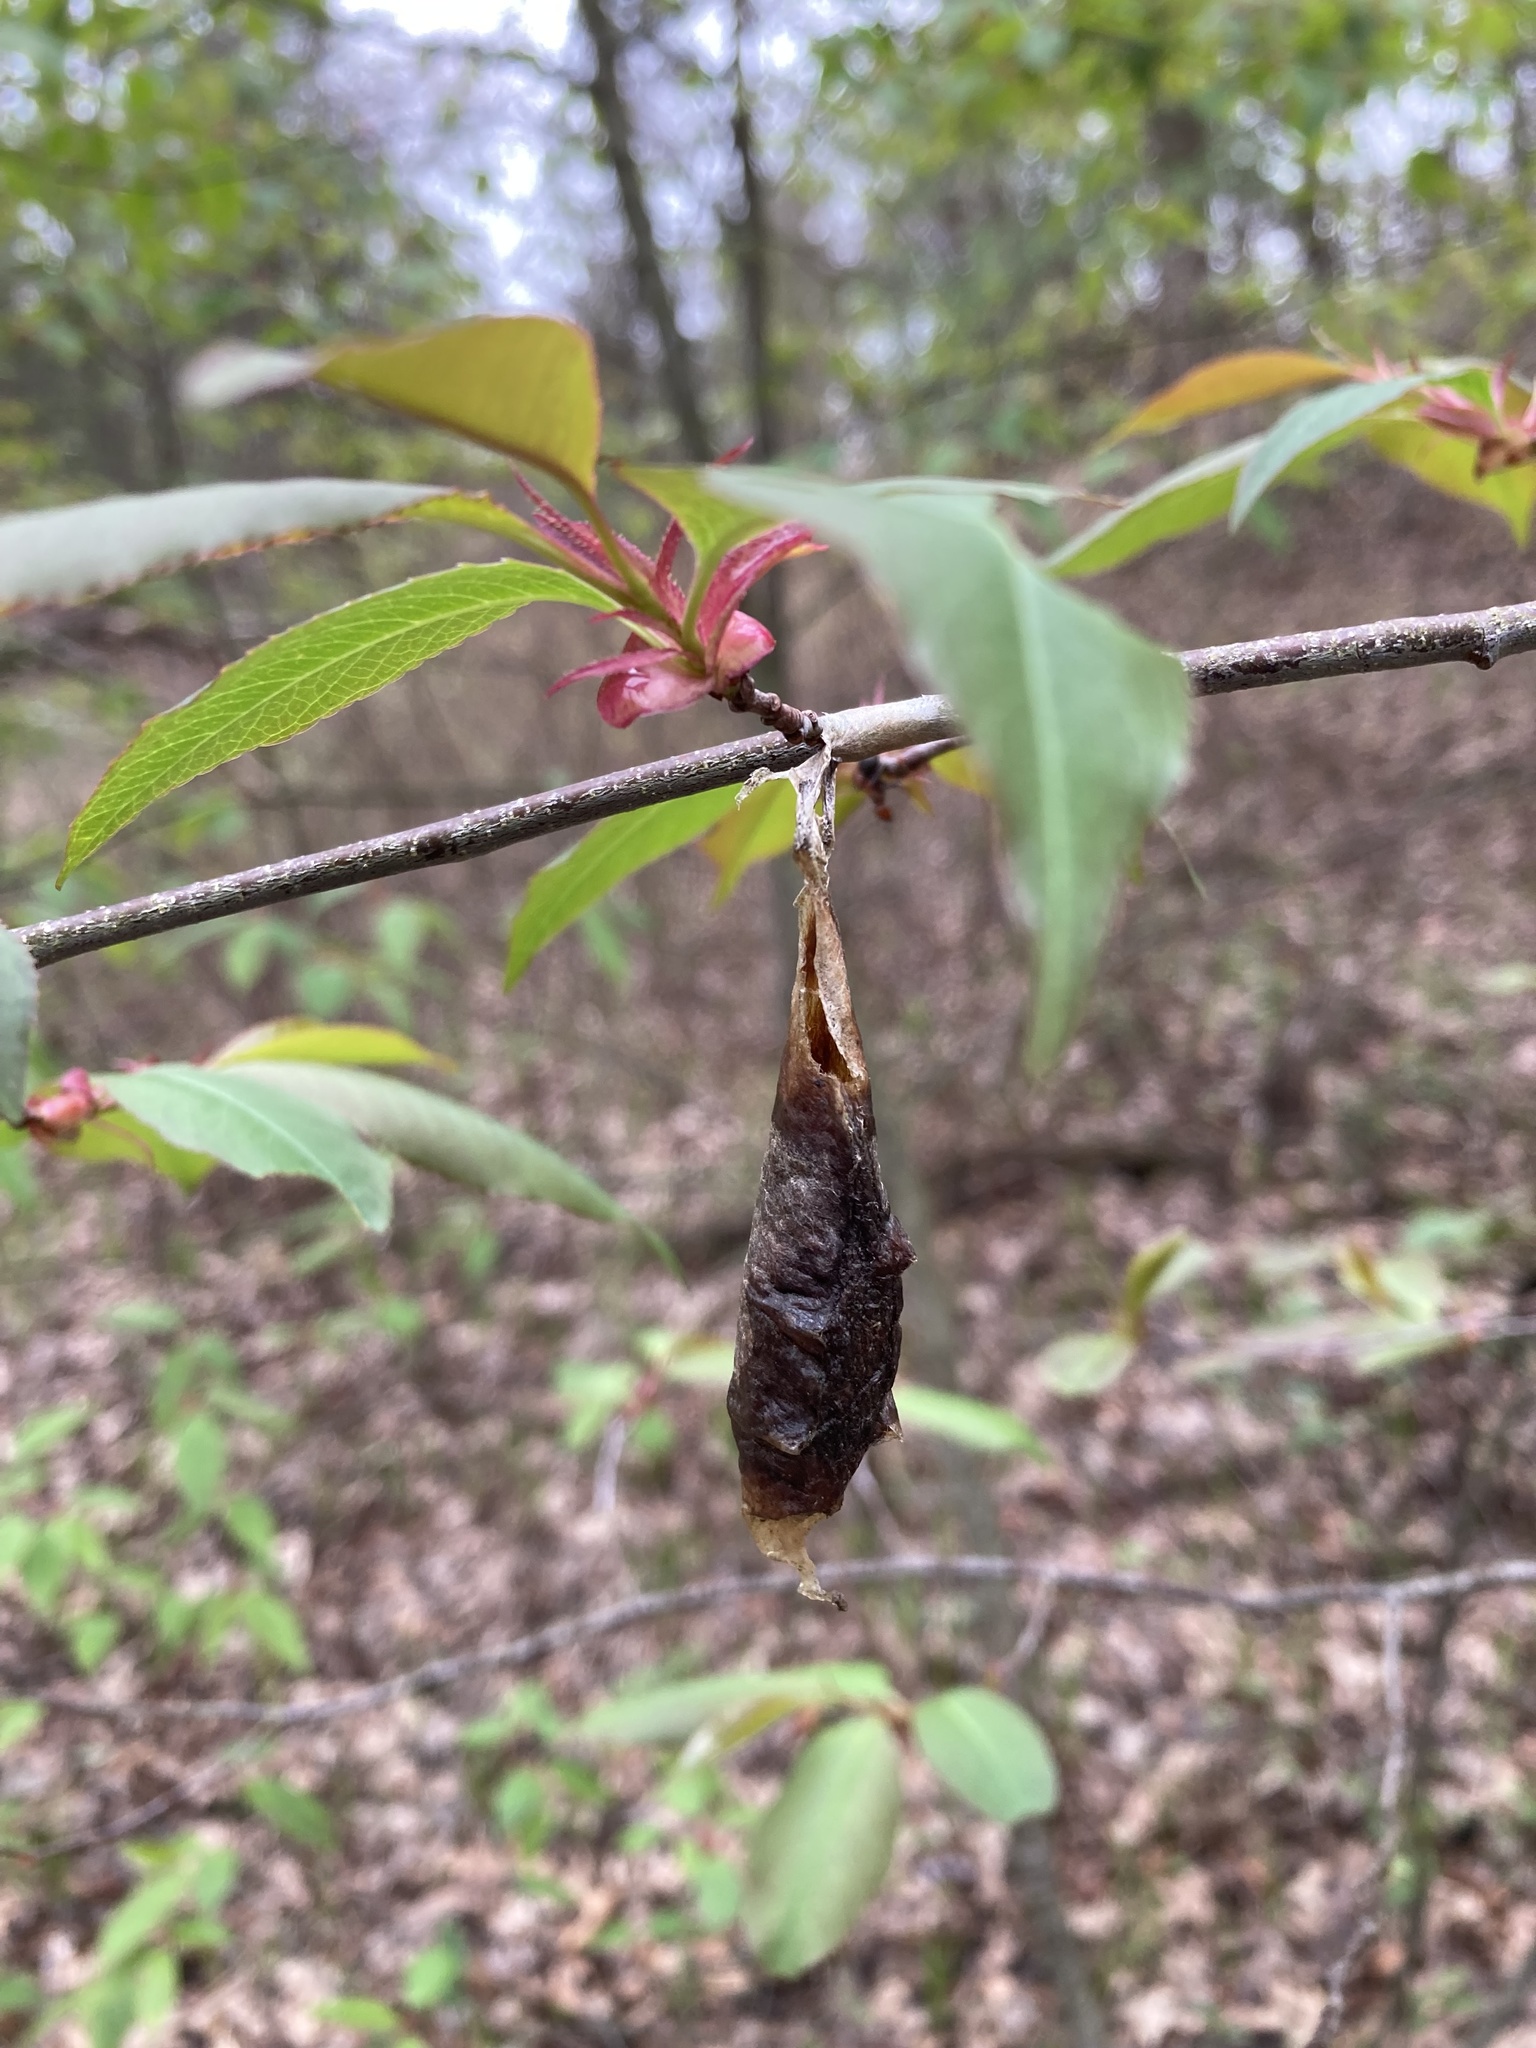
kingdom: Animalia
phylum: Arthropoda
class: Insecta
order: Lepidoptera
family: Saturniidae
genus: Callosamia
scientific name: Callosamia promethea
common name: Promethea silkmoth
